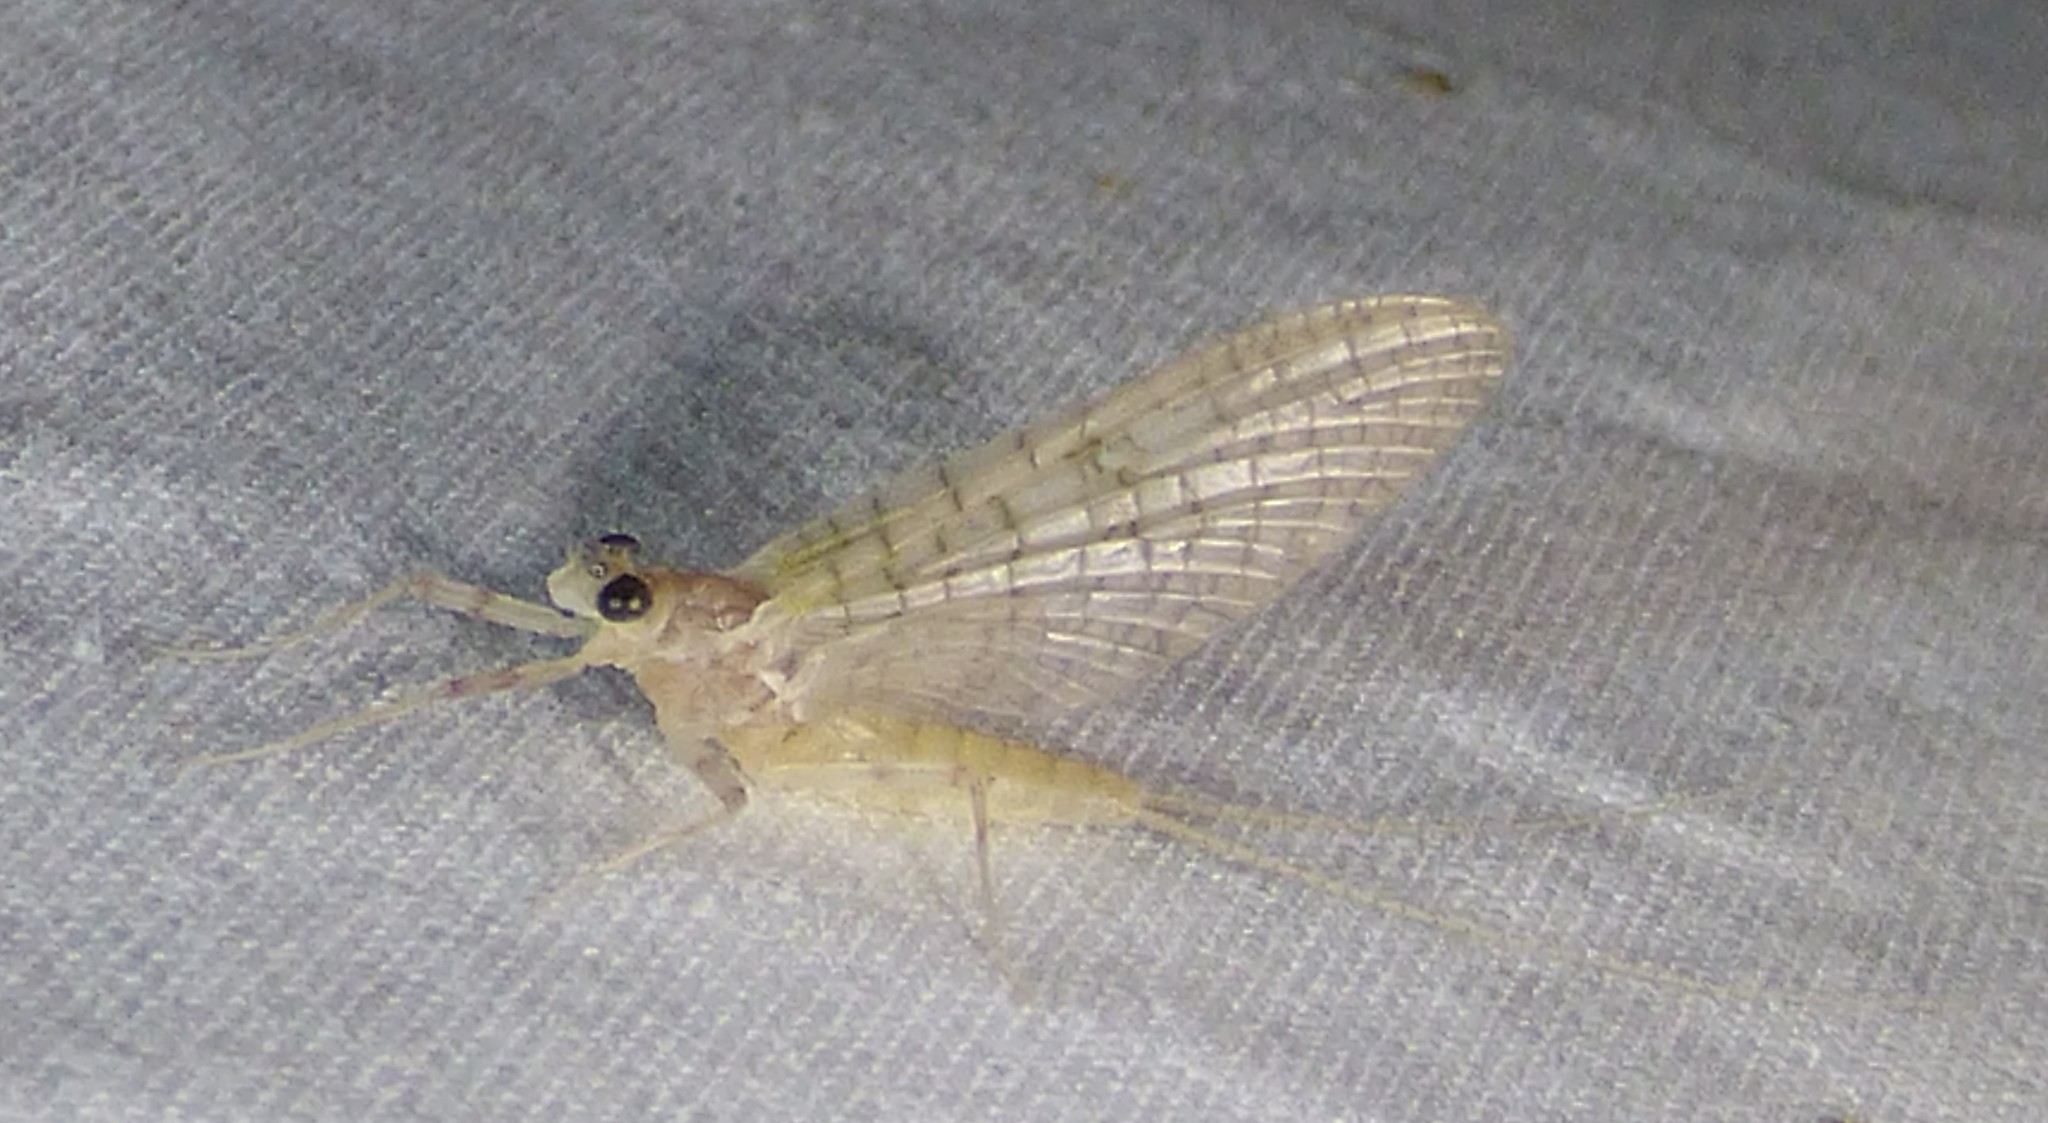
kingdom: Animalia
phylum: Arthropoda
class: Insecta
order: Ephemeroptera
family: Heptageniidae
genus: Maccaffertium
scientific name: Maccaffertium terminatum
